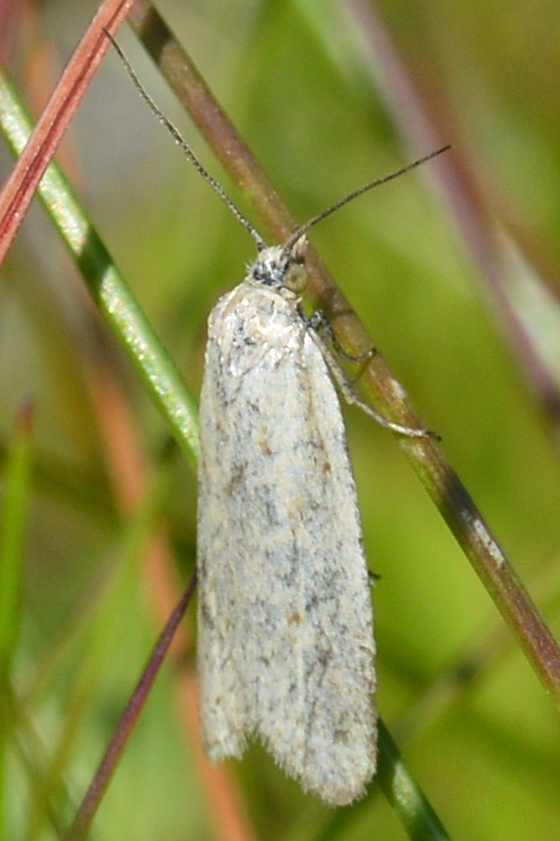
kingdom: Animalia
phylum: Arthropoda
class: Insecta
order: Lepidoptera
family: Tortricidae
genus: Eana
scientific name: Eana argentana
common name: Silver shade
